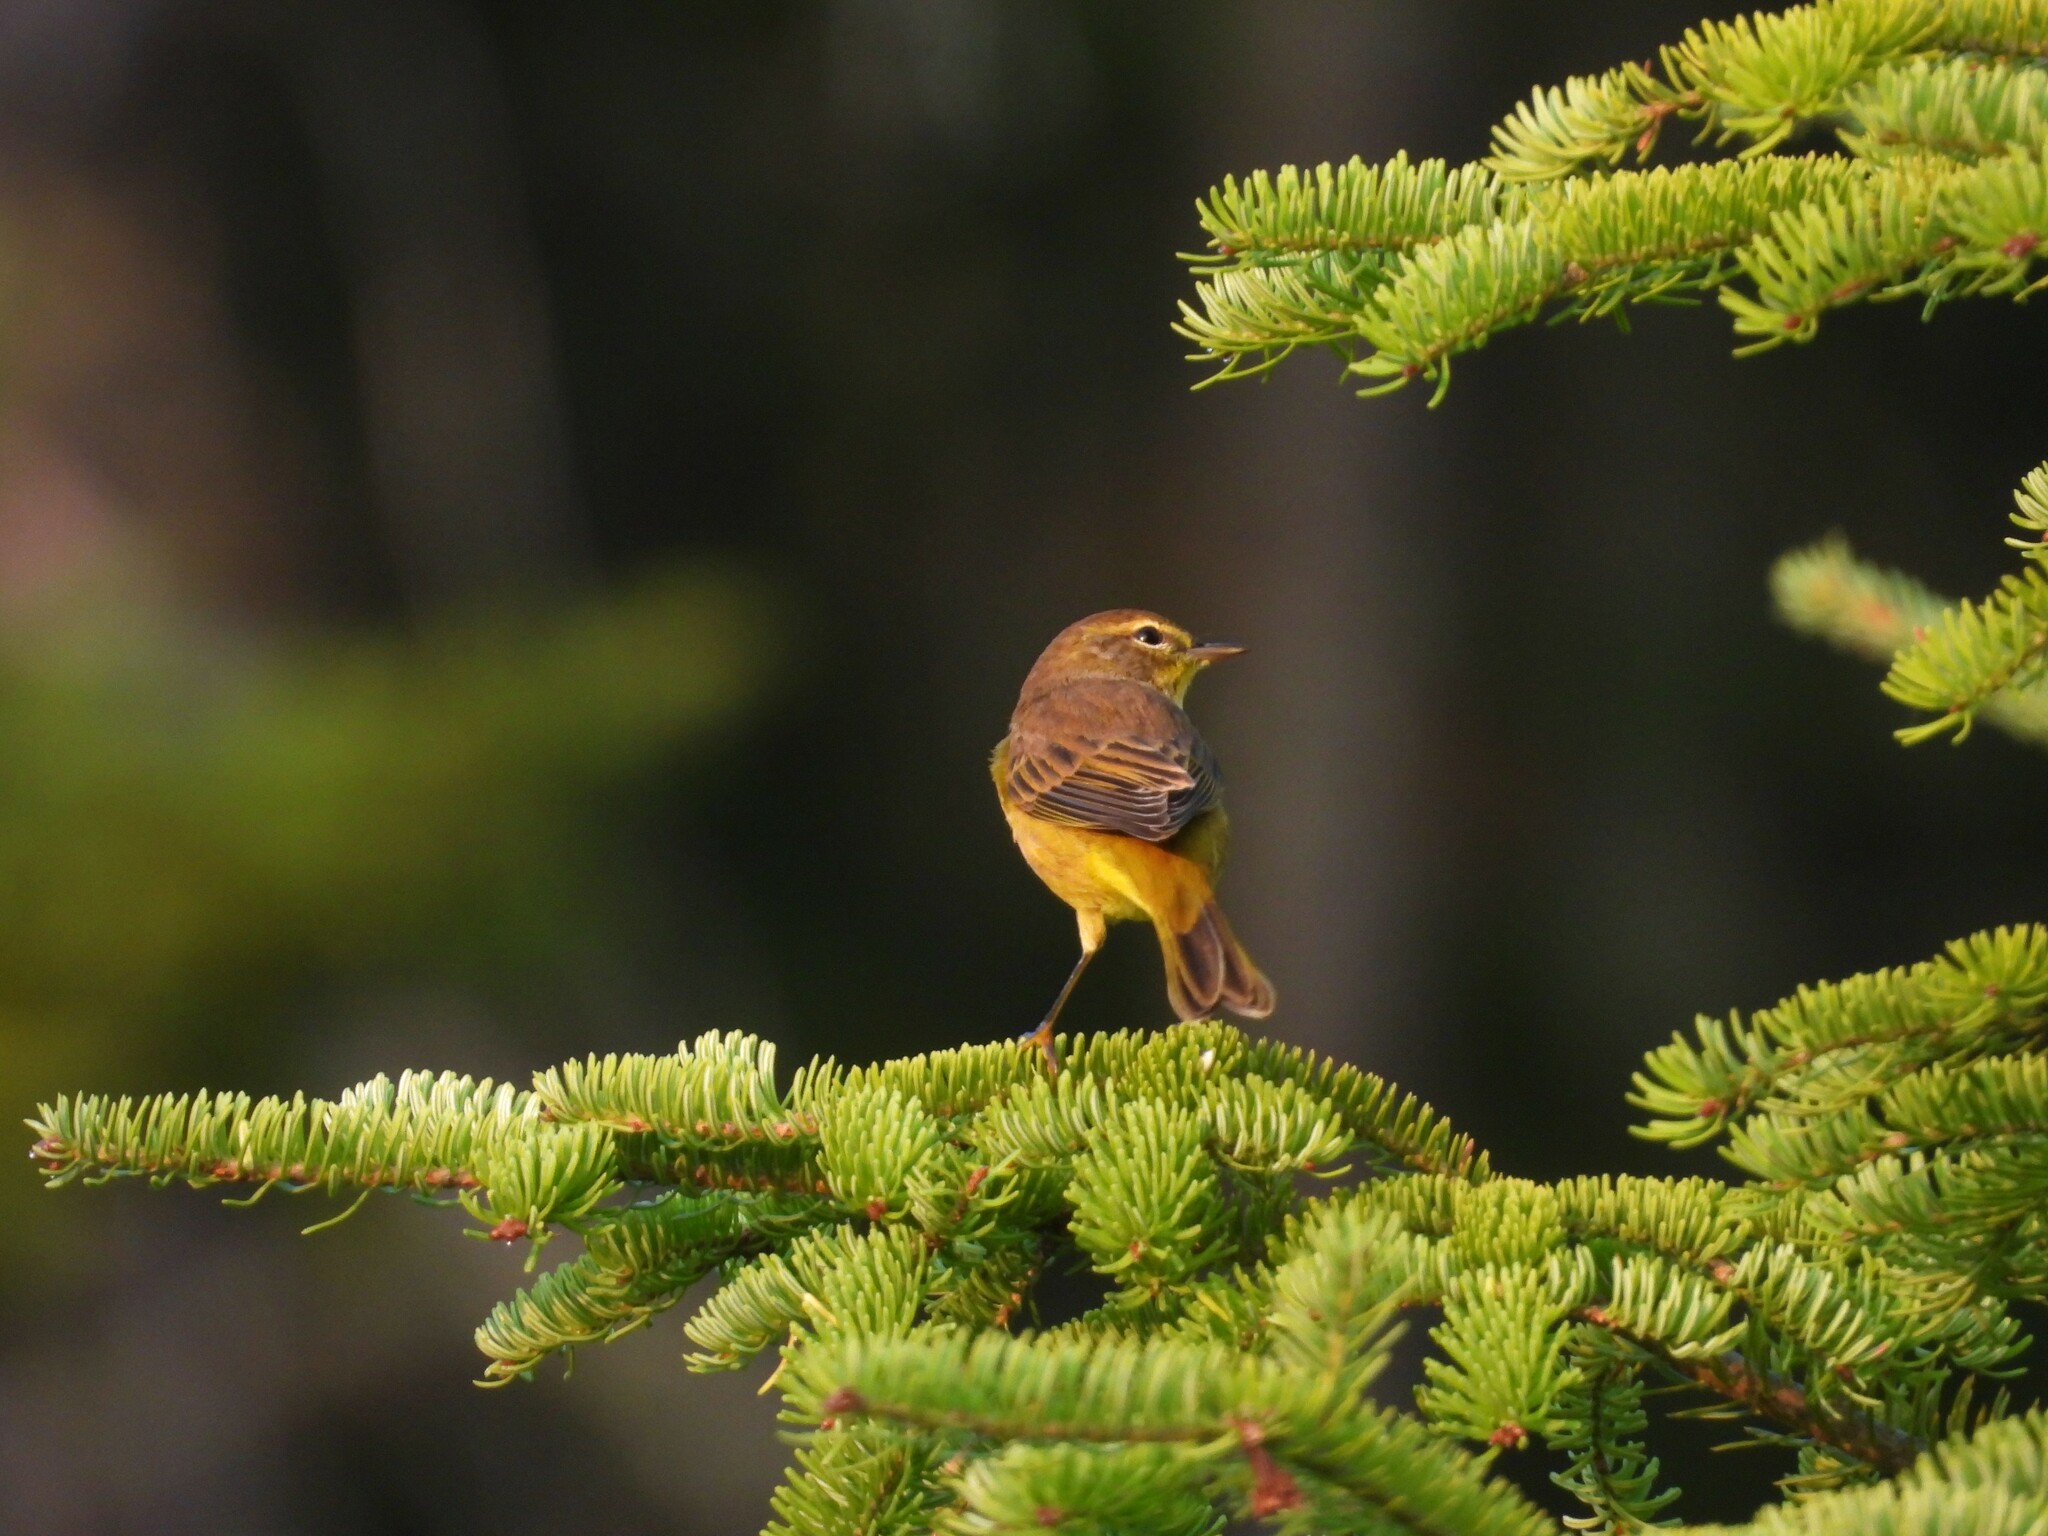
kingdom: Animalia
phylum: Chordata
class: Aves
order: Passeriformes
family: Parulidae
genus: Setophaga
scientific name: Setophaga palmarum
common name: Palm warbler
